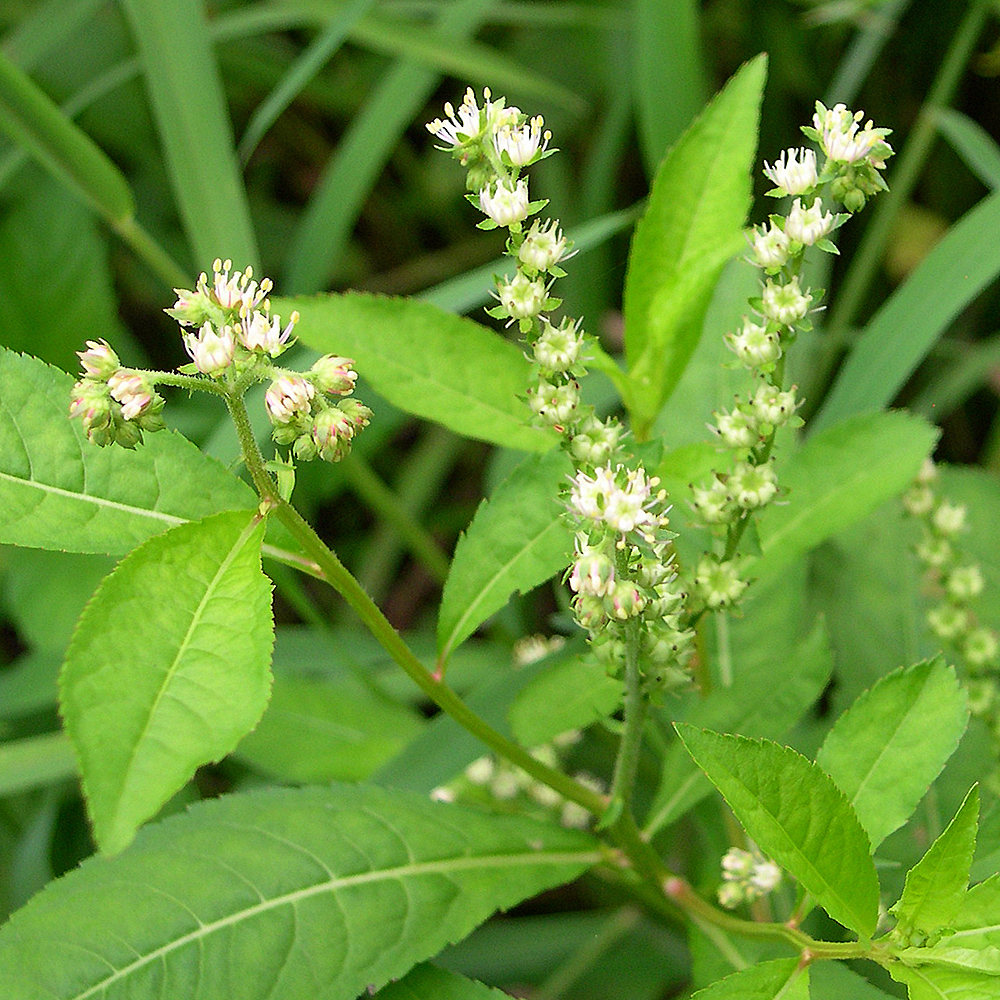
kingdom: Plantae
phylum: Tracheophyta
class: Magnoliopsida
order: Saxifragales
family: Penthoraceae
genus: Penthorum
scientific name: Penthorum sedoides
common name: Ditch stonecrop
